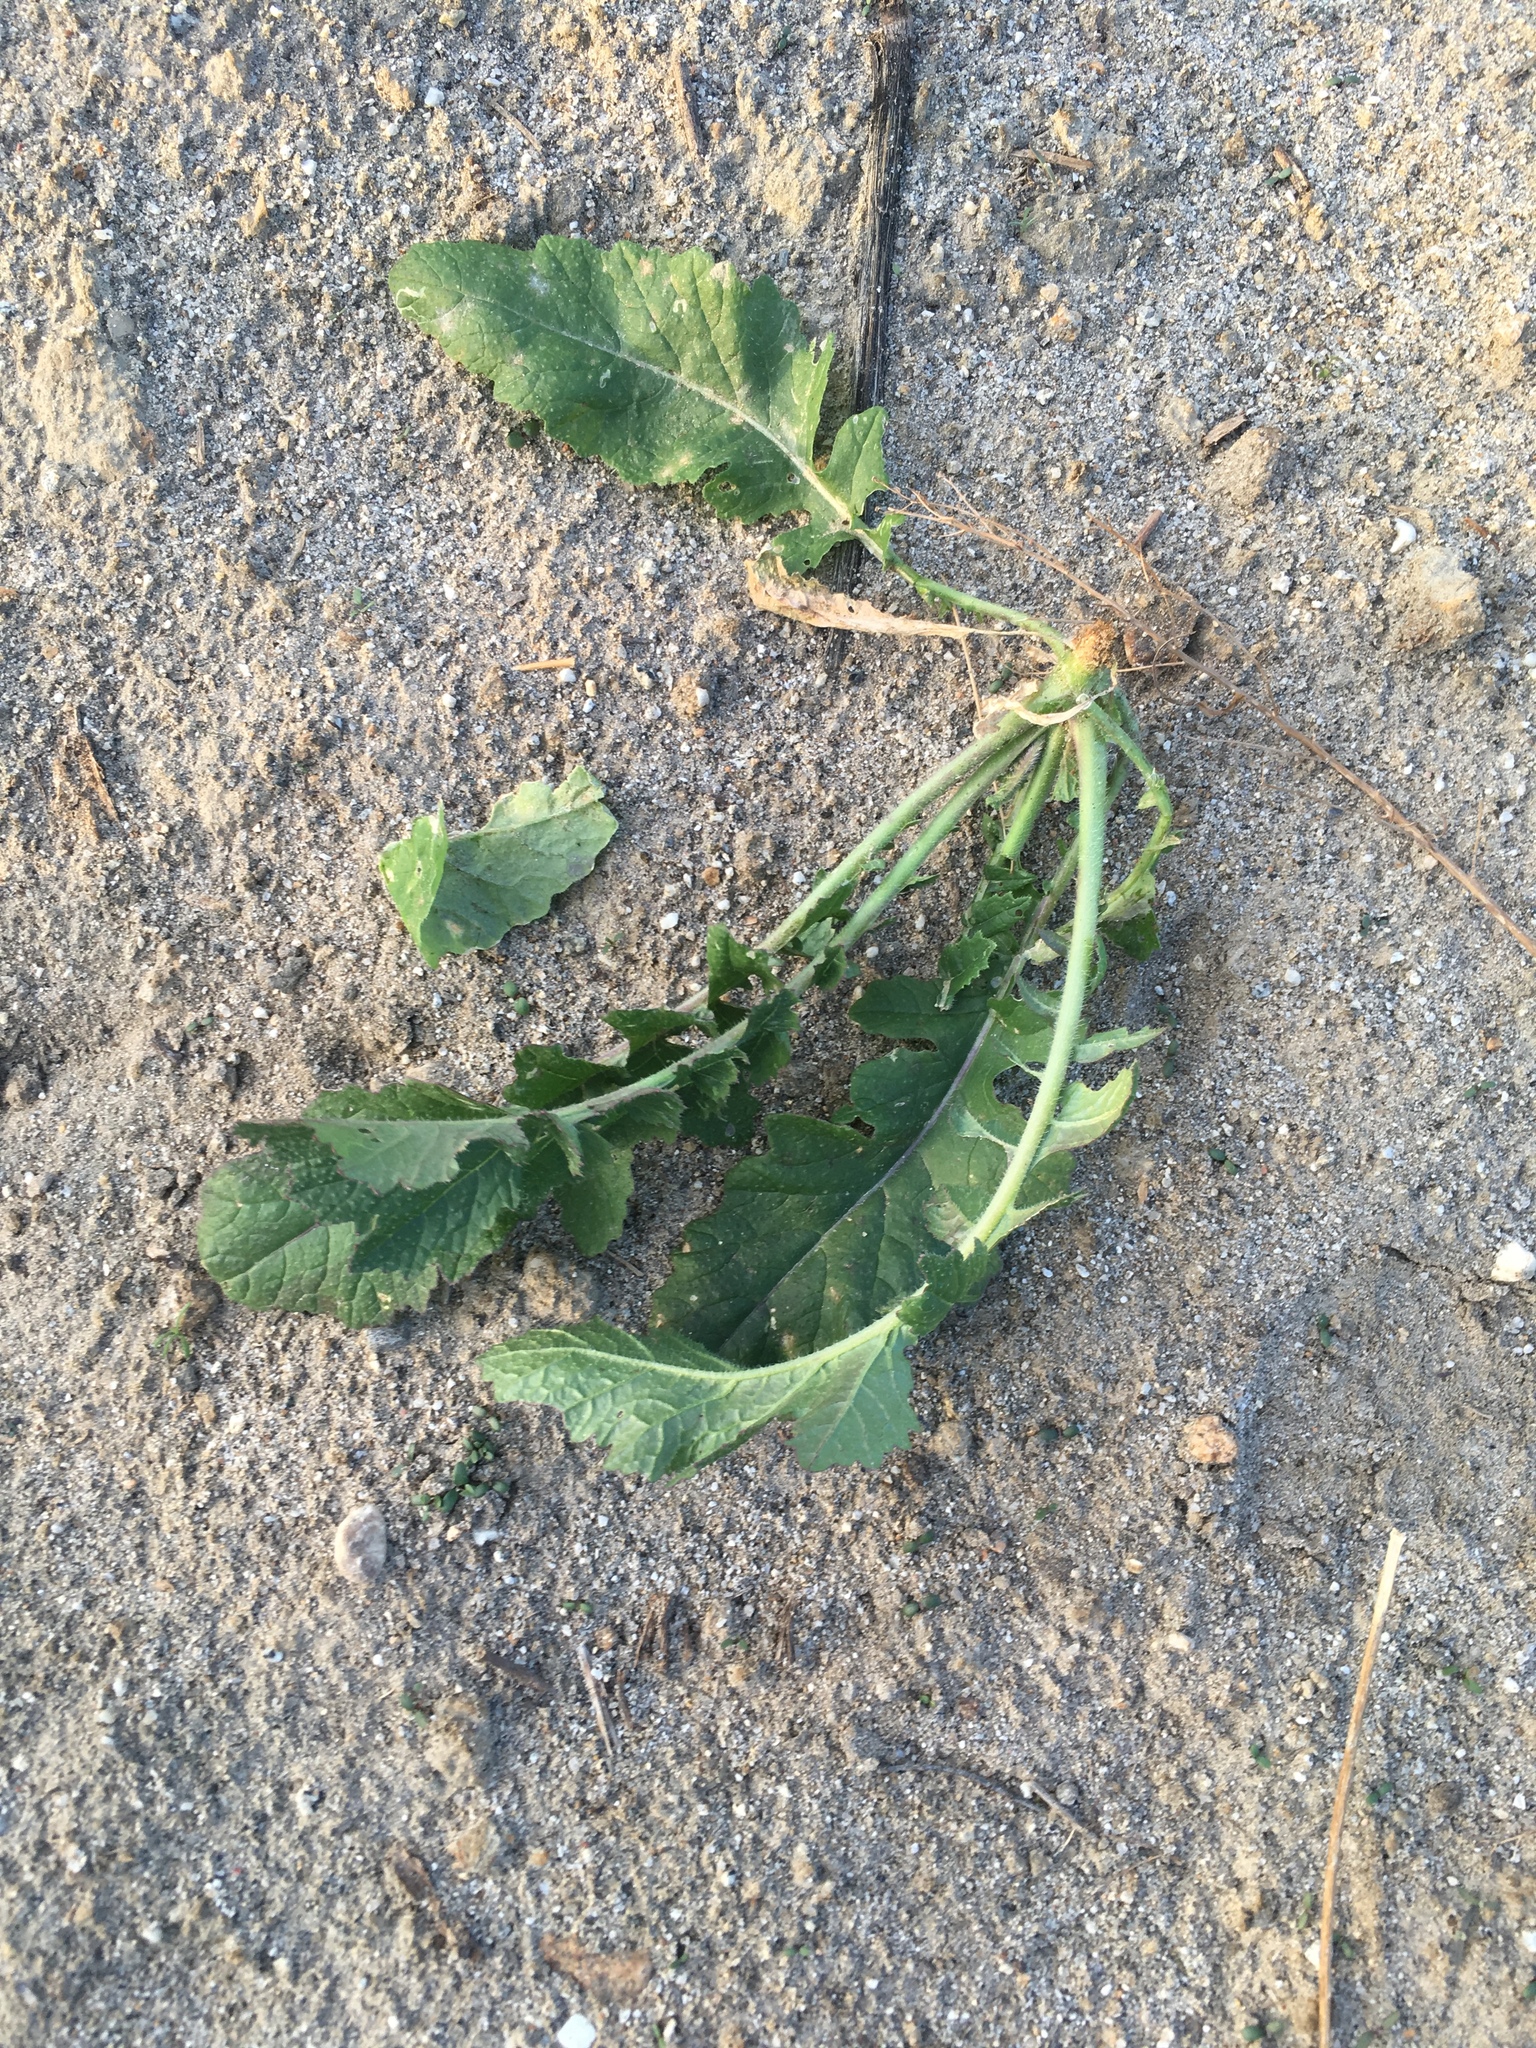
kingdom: Plantae
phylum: Tracheophyta
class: Magnoliopsida
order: Brassicales
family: Brassicaceae
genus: Brassica
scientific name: Brassica tournefortii
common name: Pale cabbage
